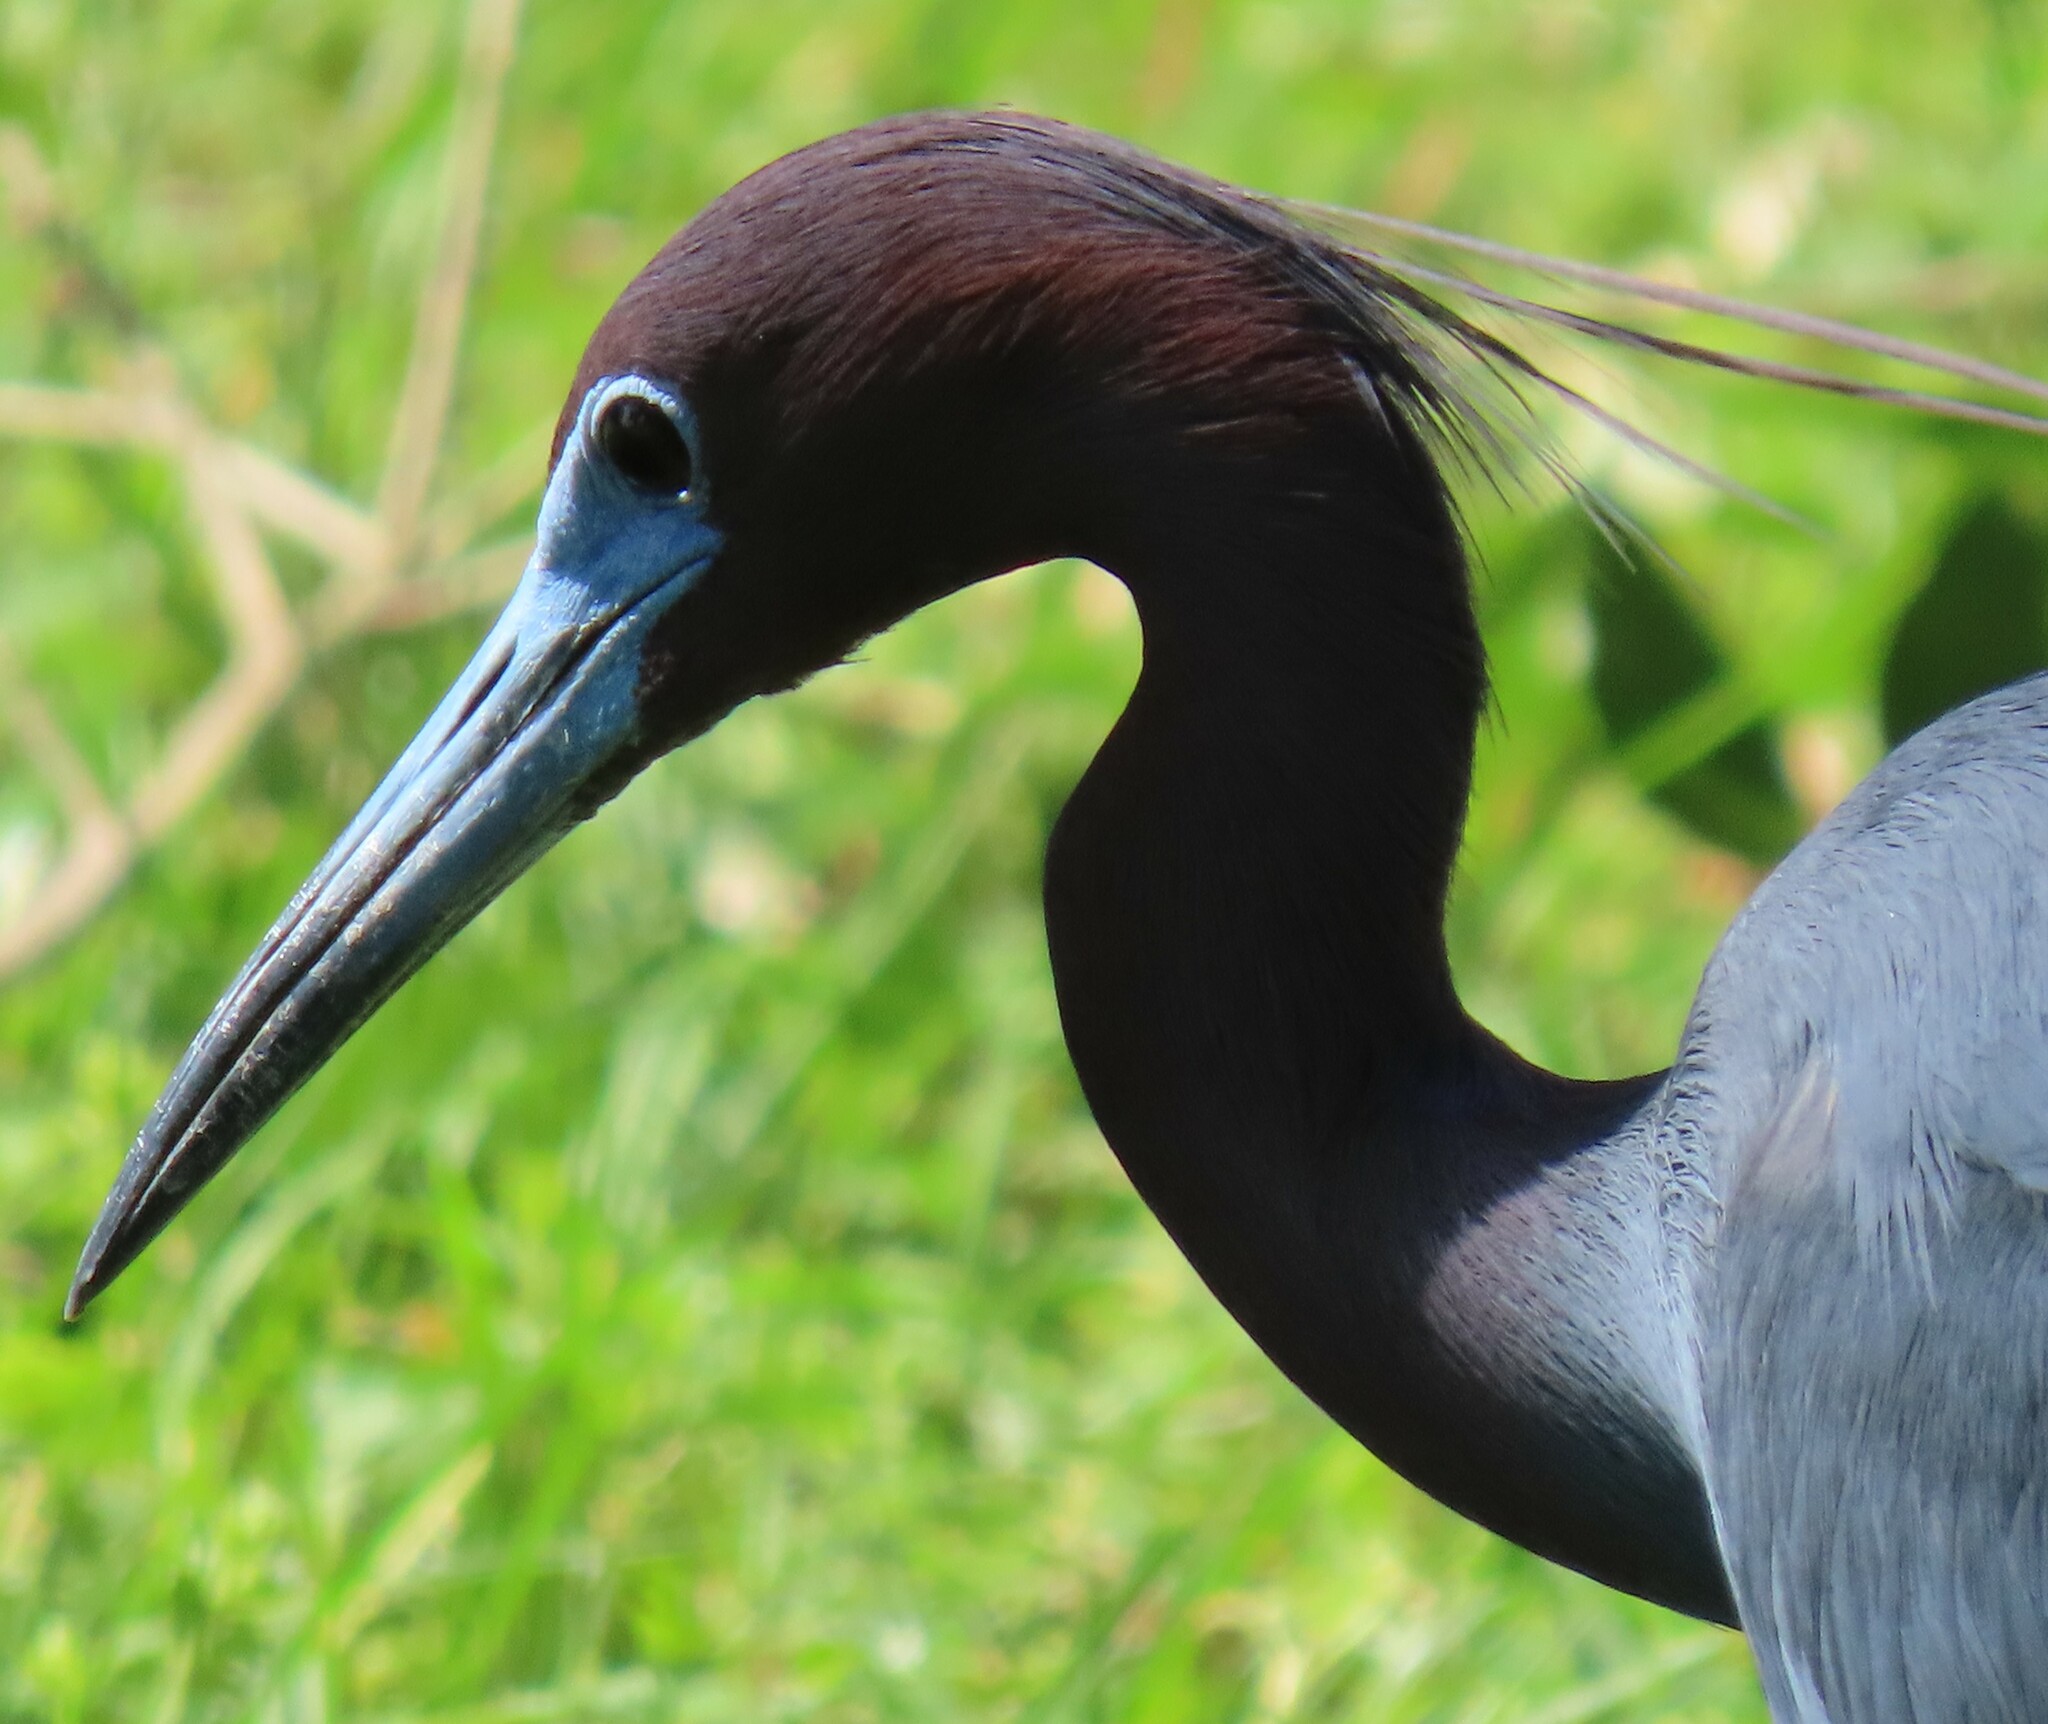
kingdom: Animalia
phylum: Chordata
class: Aves
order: Pelecaniformes
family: Ardeidae
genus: Egretta
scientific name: Egretta caerulea
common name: Little blue heron
